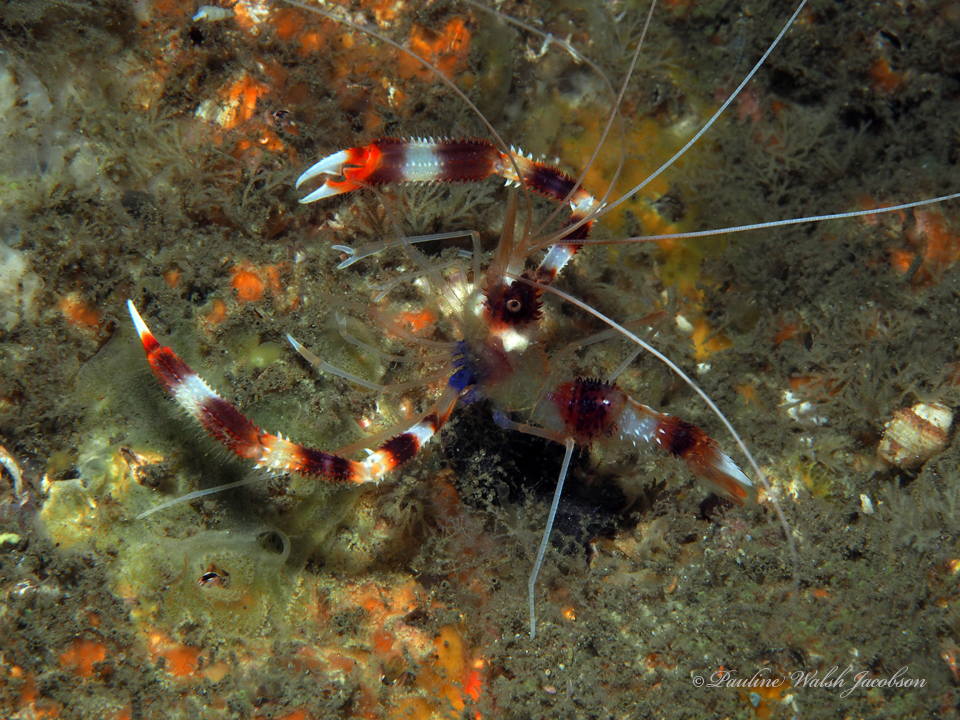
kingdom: Animalia
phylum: Arthropoda
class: Malacostraca
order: Decapoda
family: Stenopodidae
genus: Stenopus
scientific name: Stenopus hispidus
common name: Banded coral shrimp
